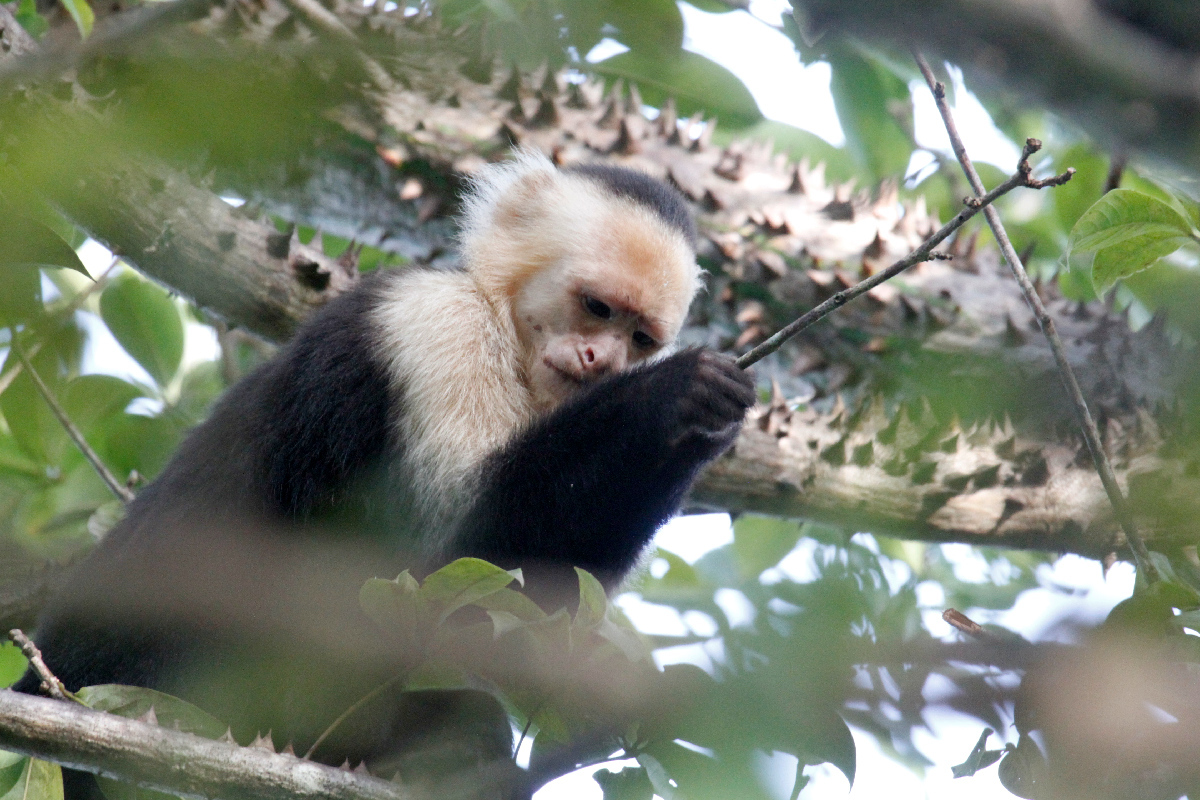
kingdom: Animalia
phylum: Chordata
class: Mammalia
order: Primates
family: Cebidae
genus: Cebus
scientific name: Cebus imitator
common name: Panamanian white-faced capuchin
